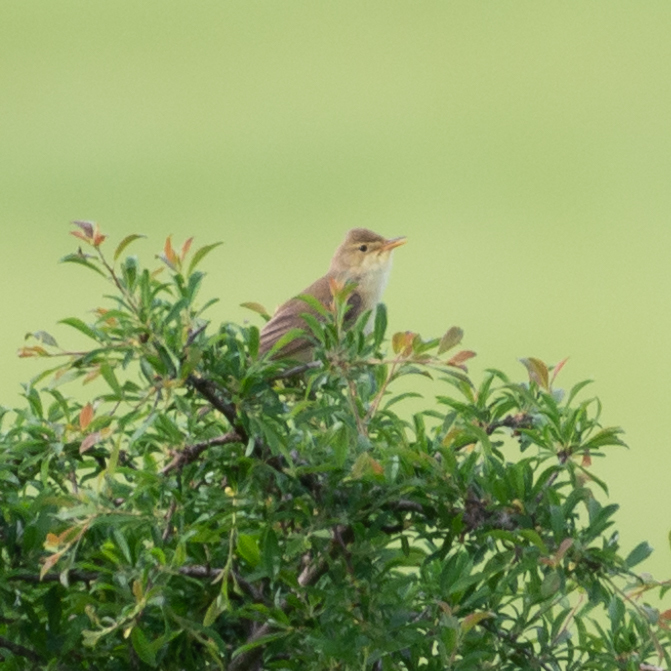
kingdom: Animalia
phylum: Chordata
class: Aves
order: Passeriformes
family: Acrocephalidae
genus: Hippolais
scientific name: Hippolais polyglotta
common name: Melodious warbler
